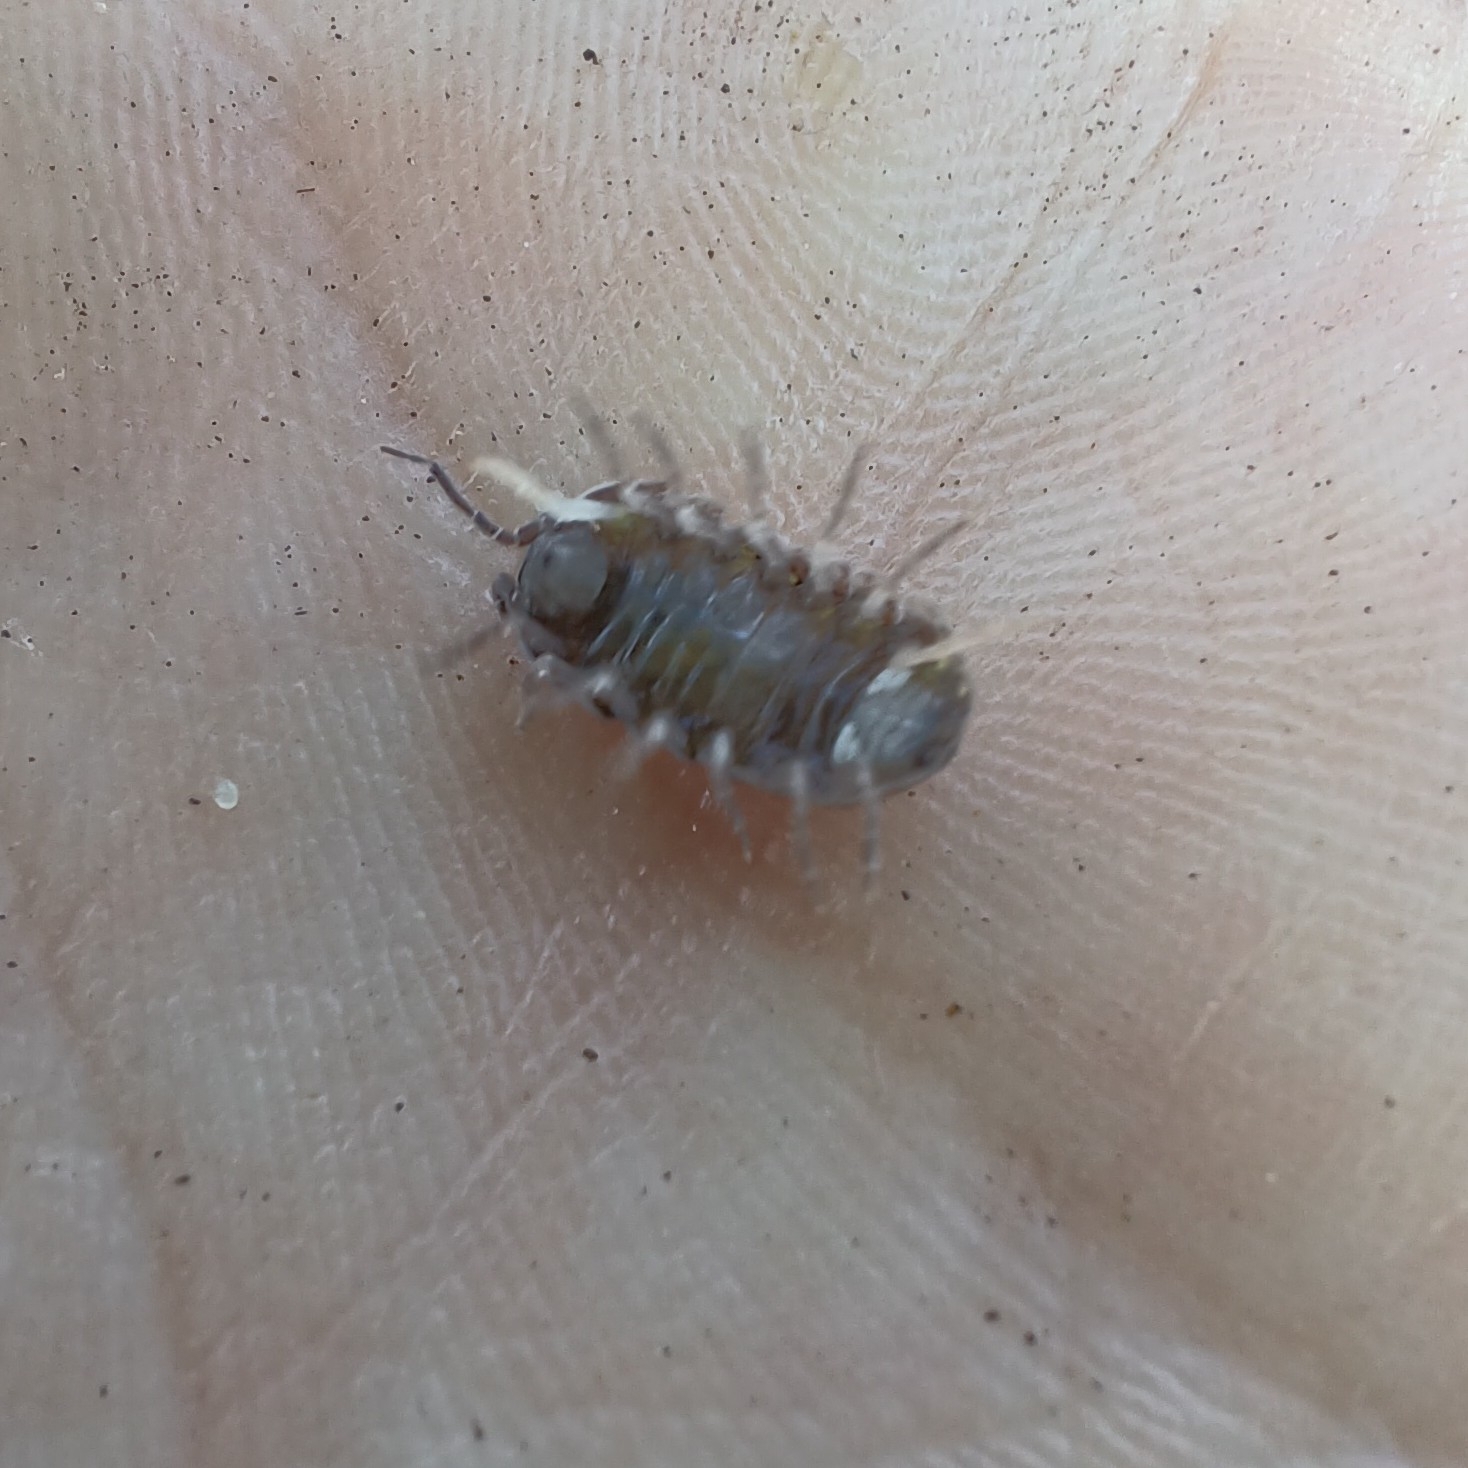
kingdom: Animalia
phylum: Arthropoda
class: Malacostraca
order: Isopoda
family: Armadillidiidae
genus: Armadillidium
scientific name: Armadillidium vulgare
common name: Common pill woodlouse
